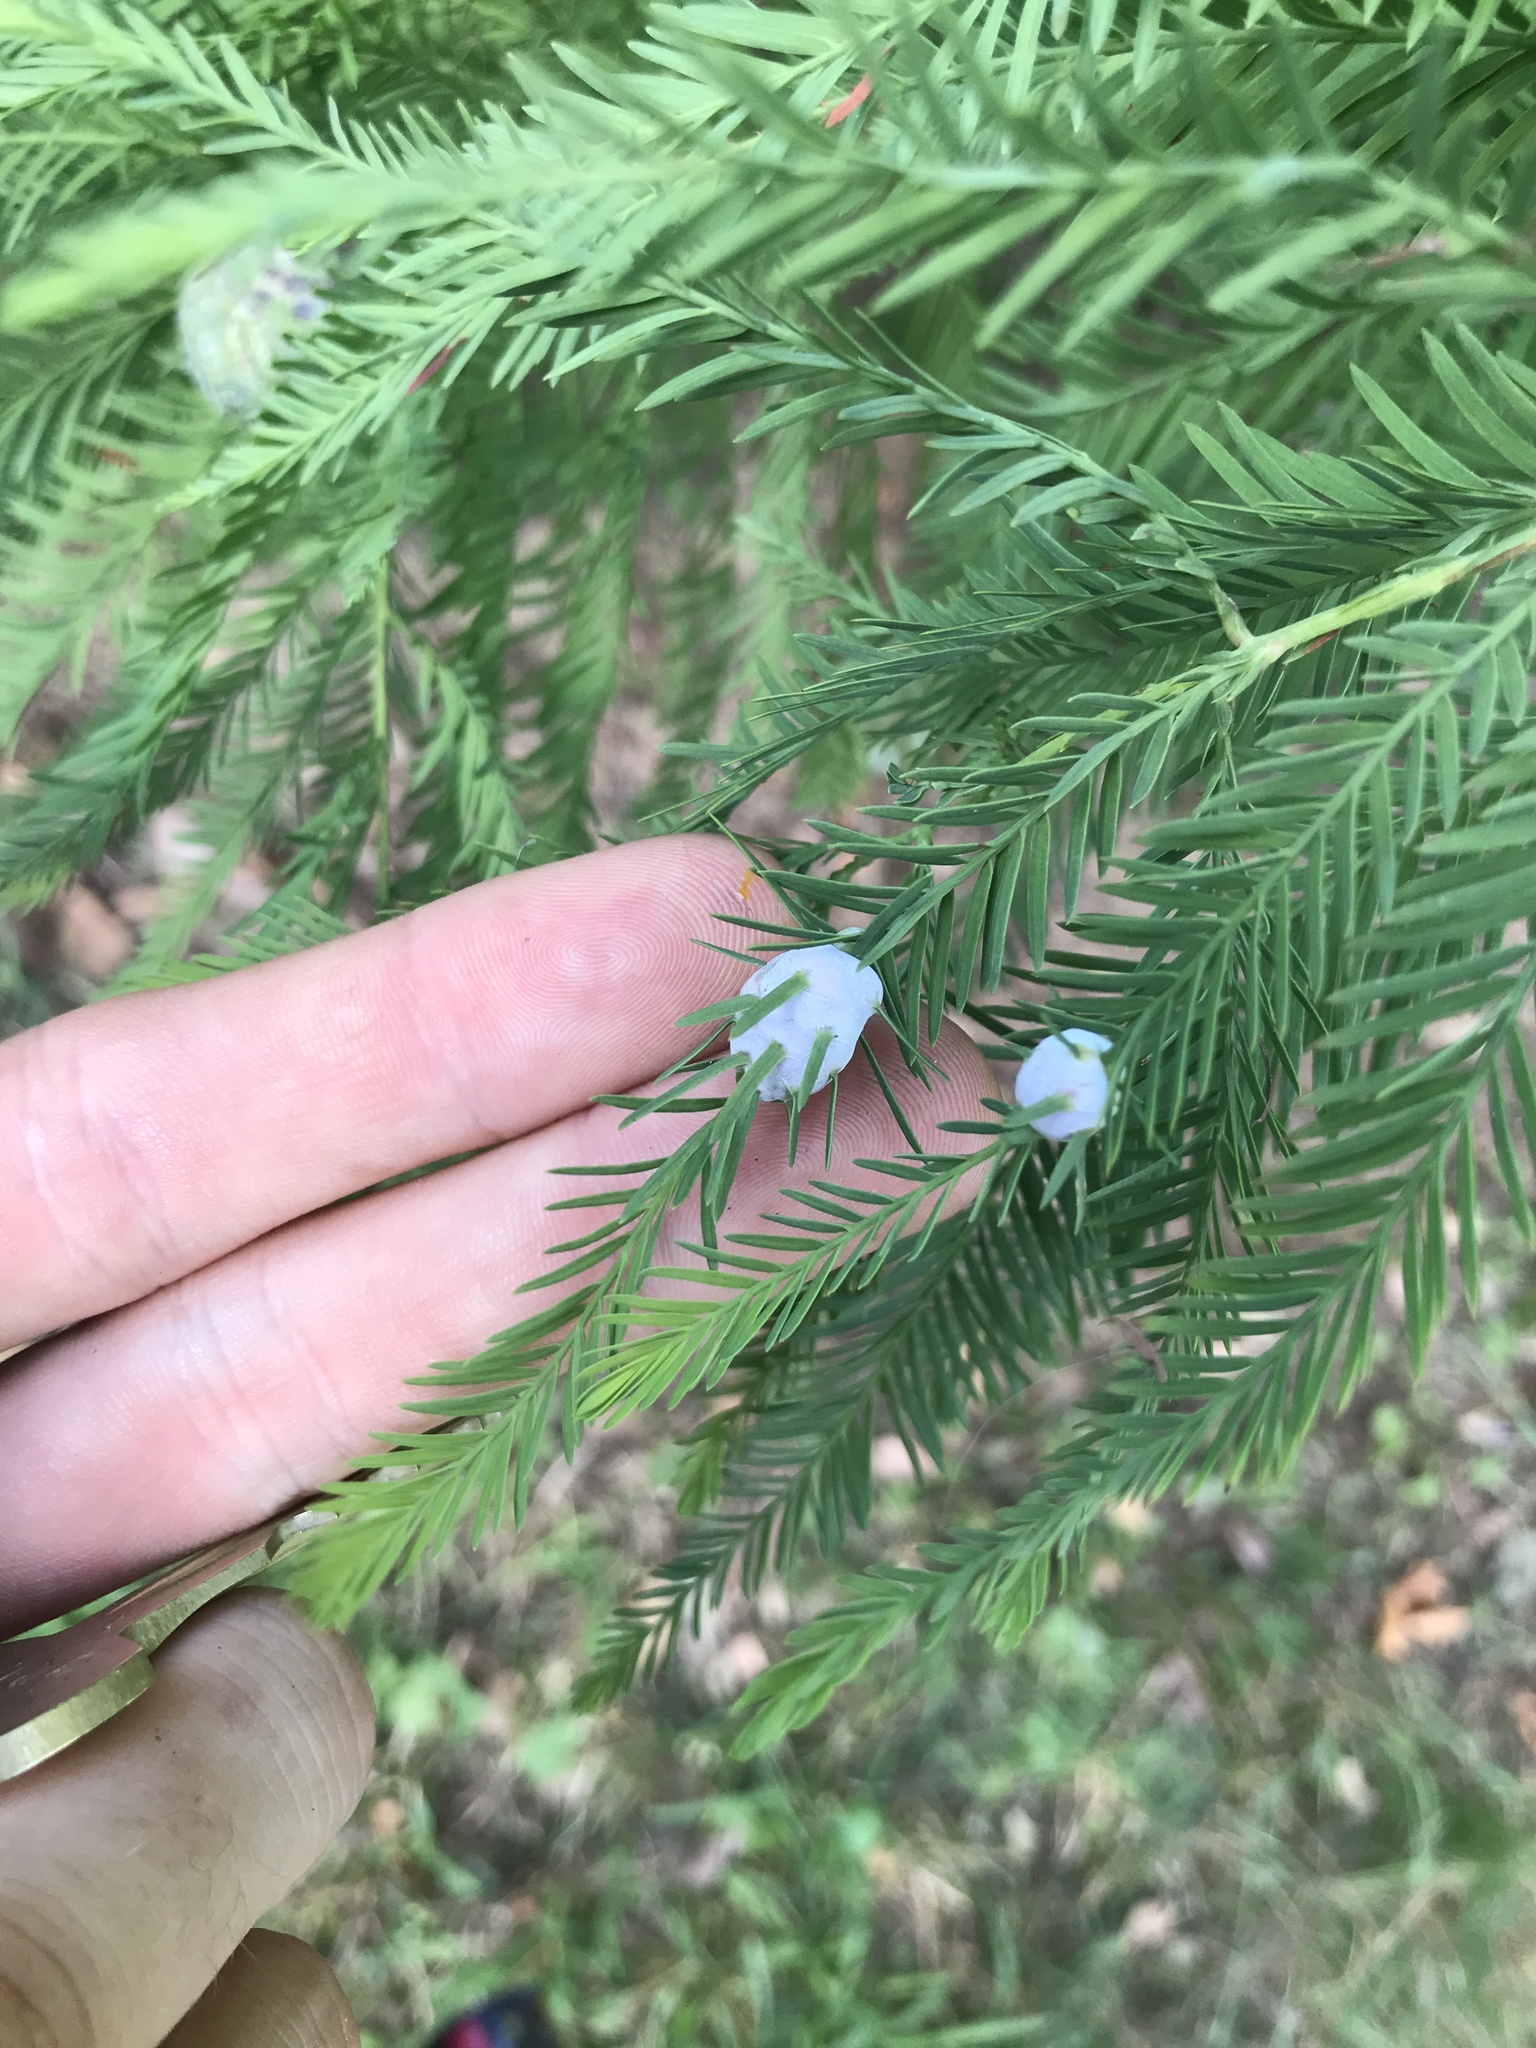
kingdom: Animalia
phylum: Arthropoda
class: Insecta
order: Diptera
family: Cecidomyiidae
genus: Taxodiomyia
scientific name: Taxodiomyia cupressiananassa
